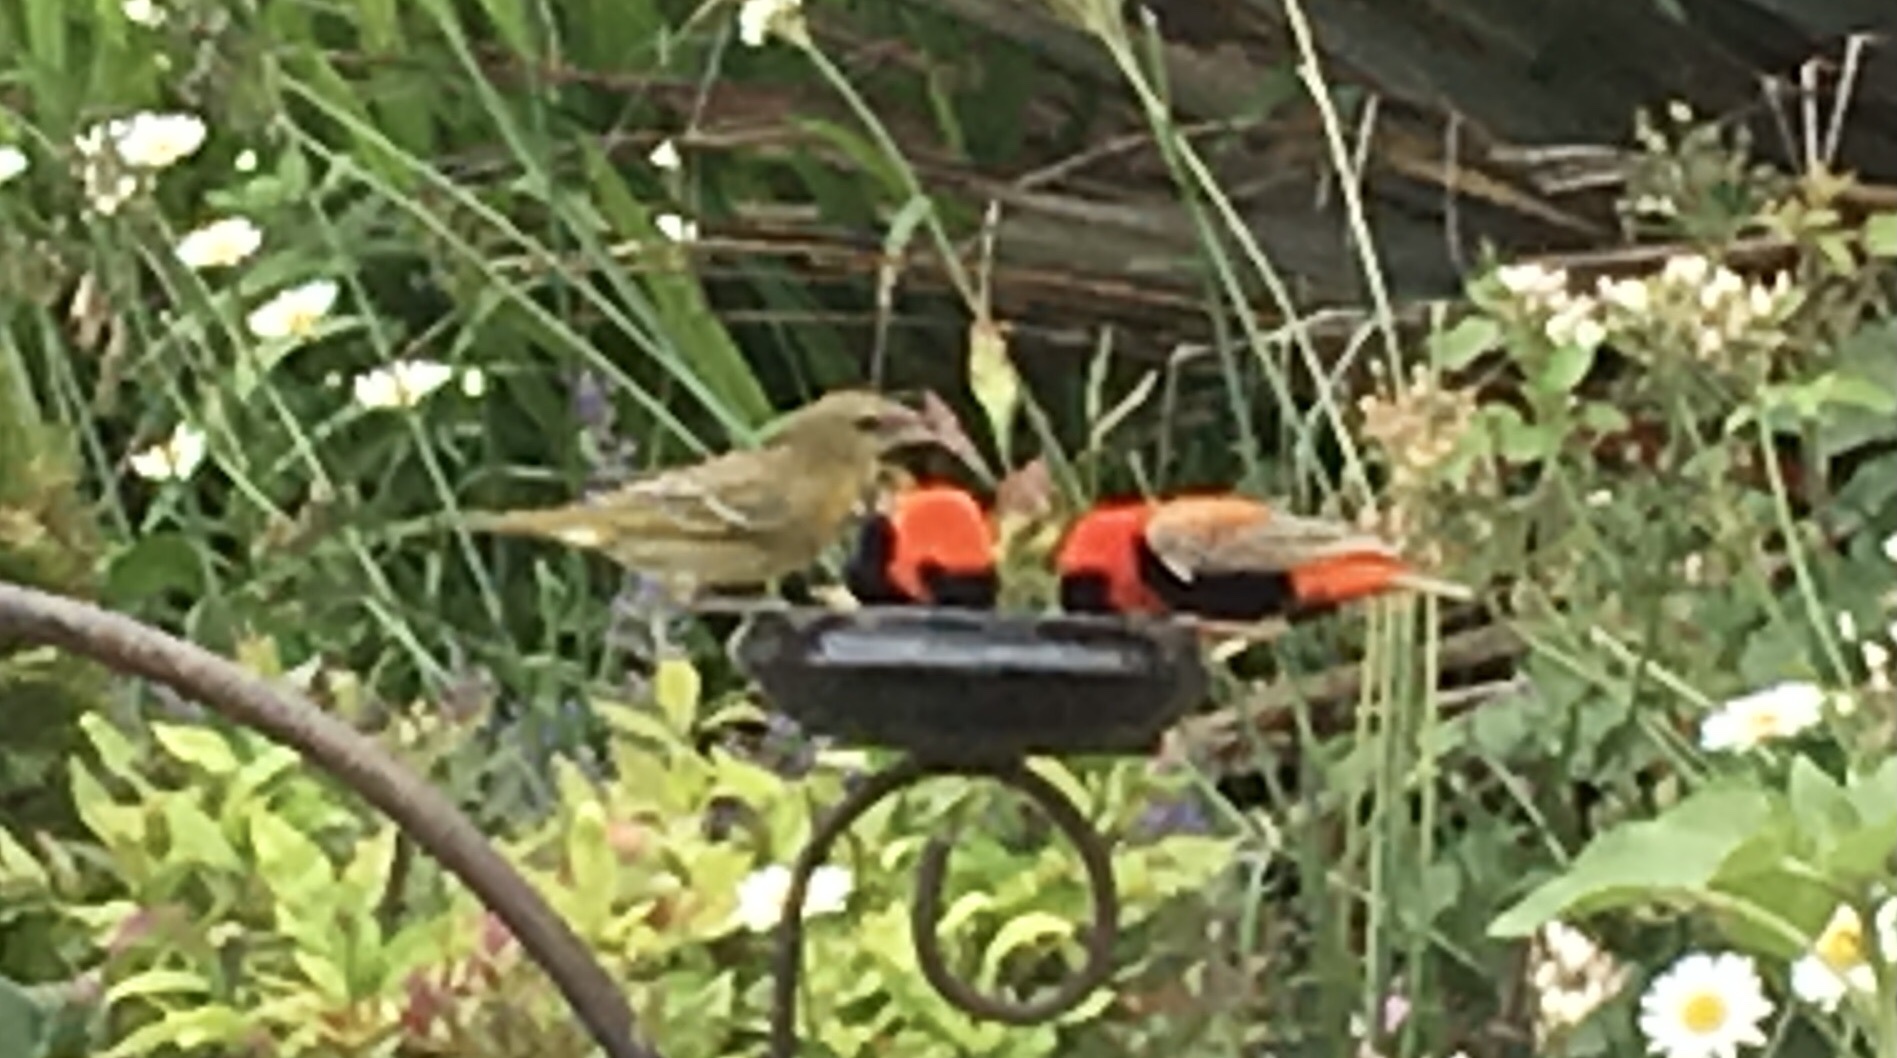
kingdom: Animalia
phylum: Chordata
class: Aves
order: Passeriformes
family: Ploceidae
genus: Euplectes
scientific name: Euplectes orix
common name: Southern red bishop
